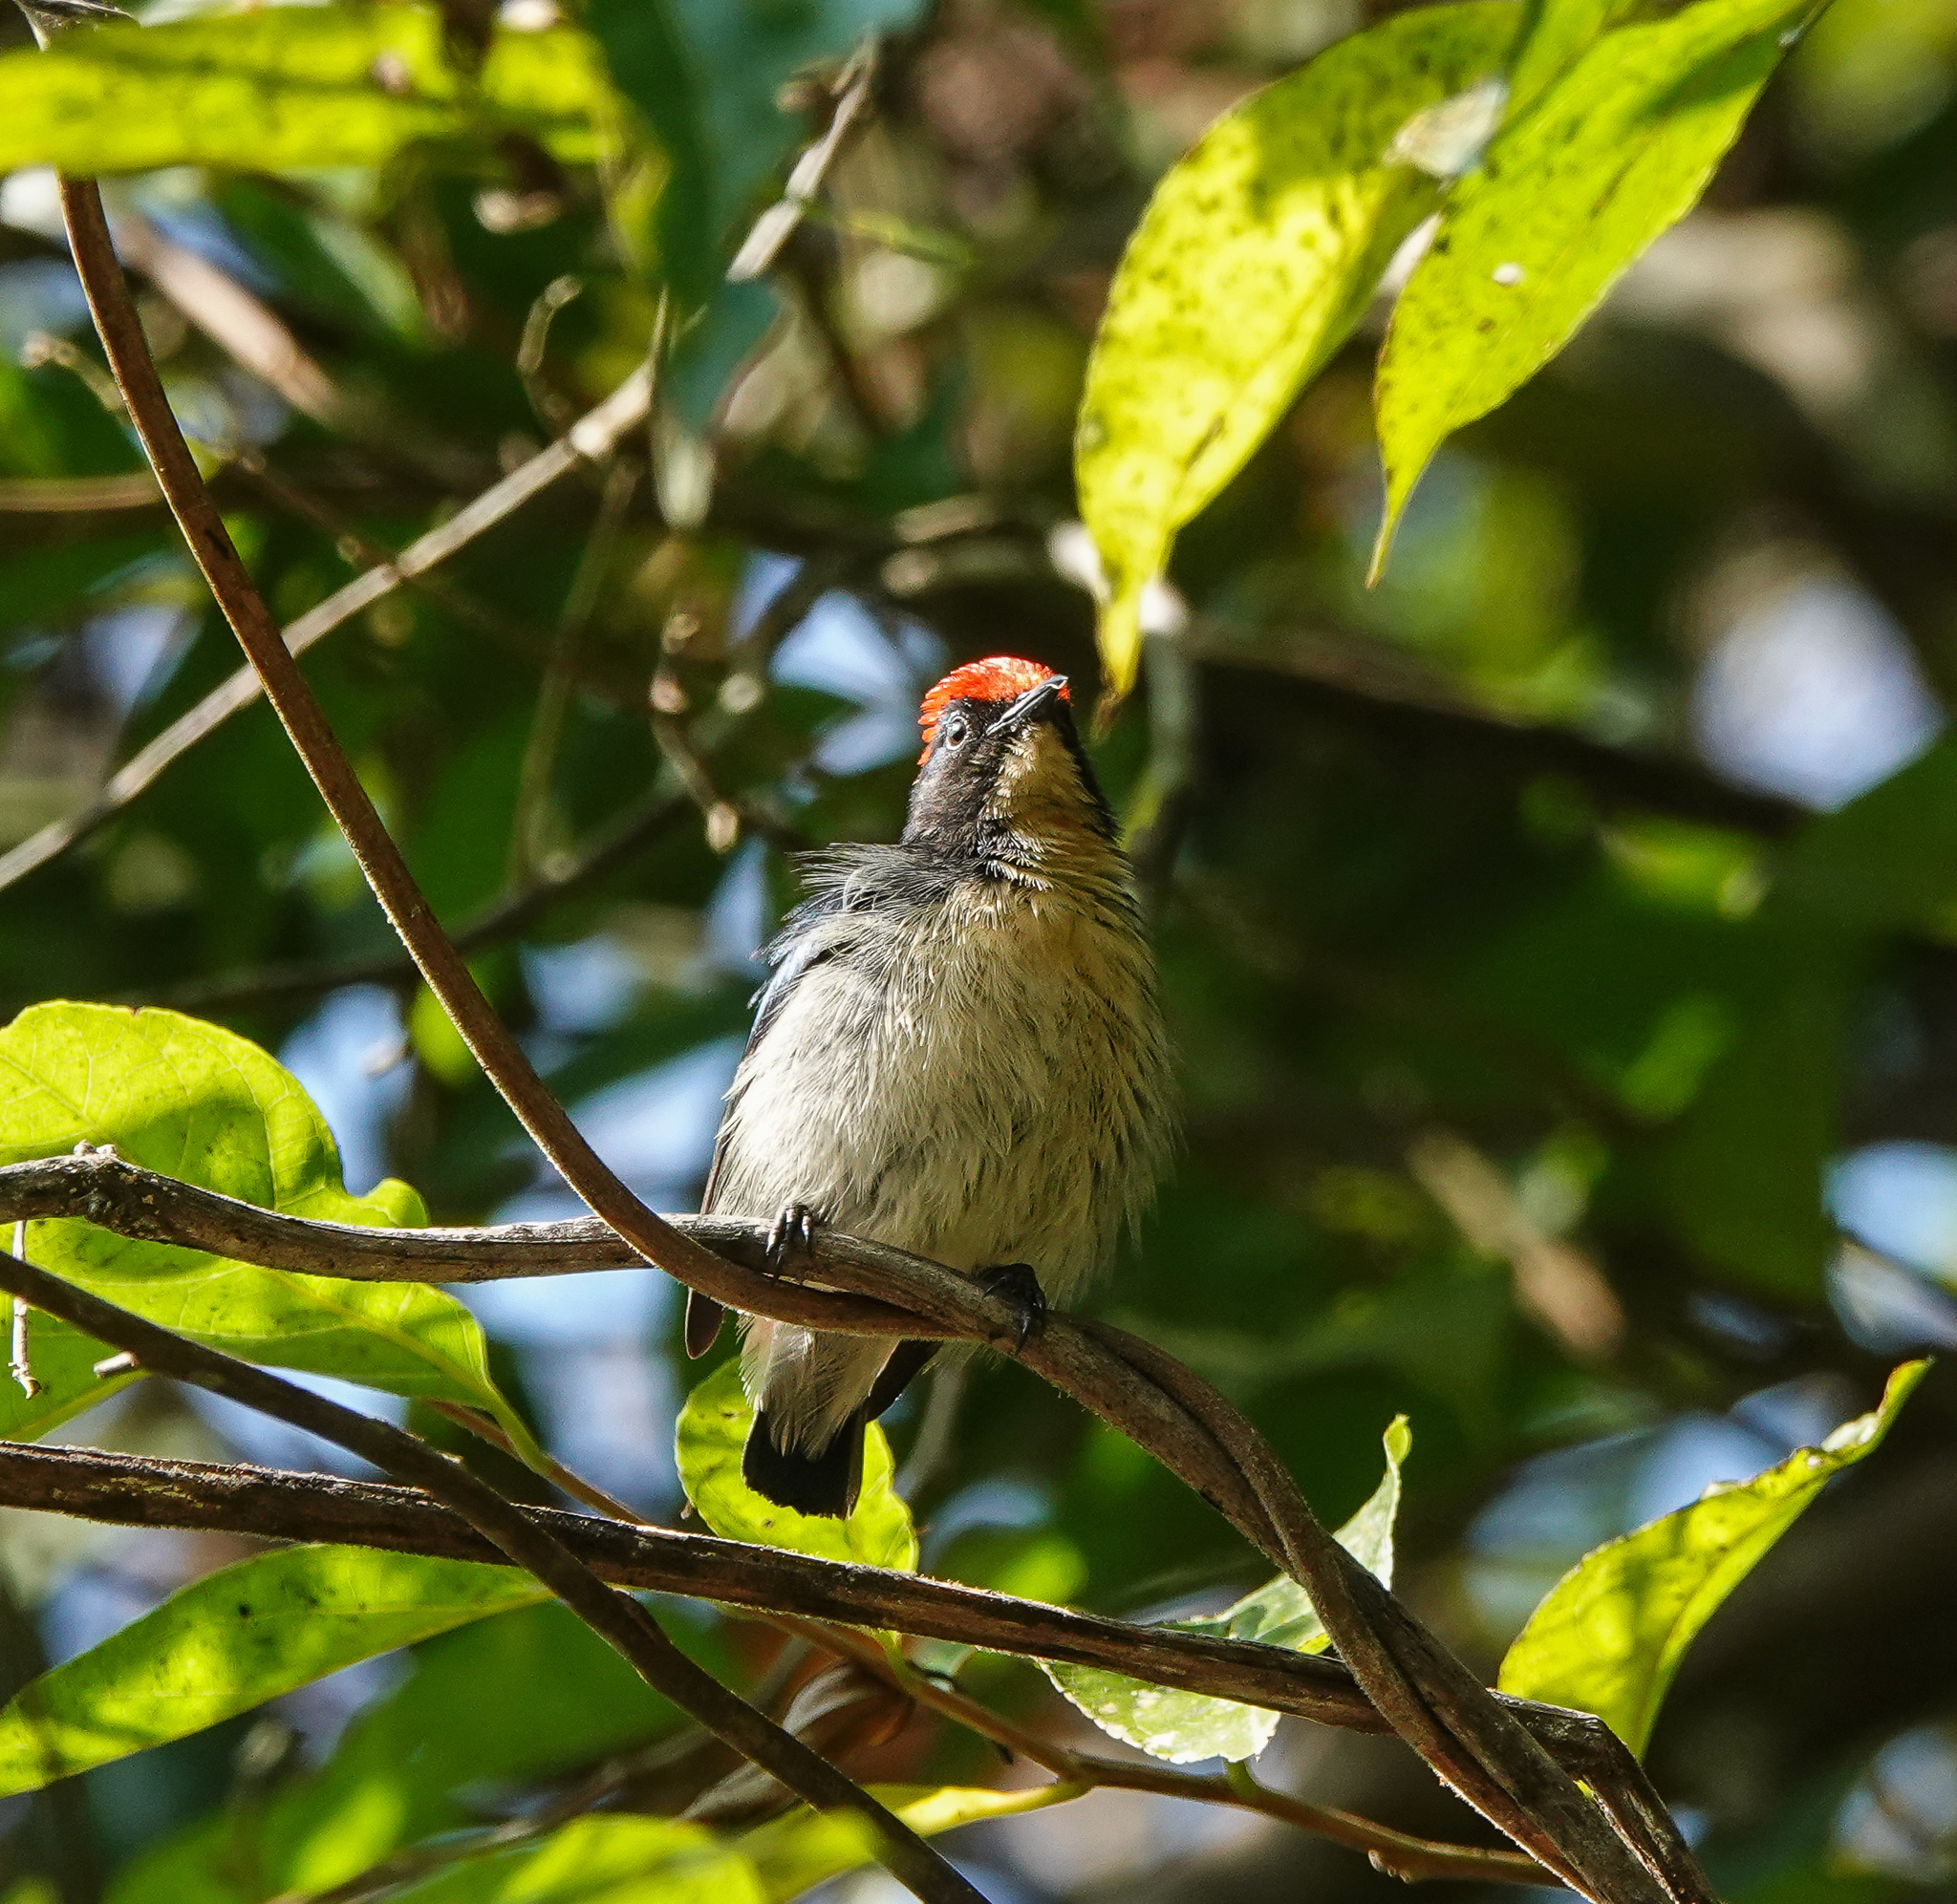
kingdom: Animalia
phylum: Chordata
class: Aves
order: Passeriformes
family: Dicaeidae
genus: Dicaeum
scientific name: Dicaeum cruentatum
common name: Scarlet-backed flowerpecker
